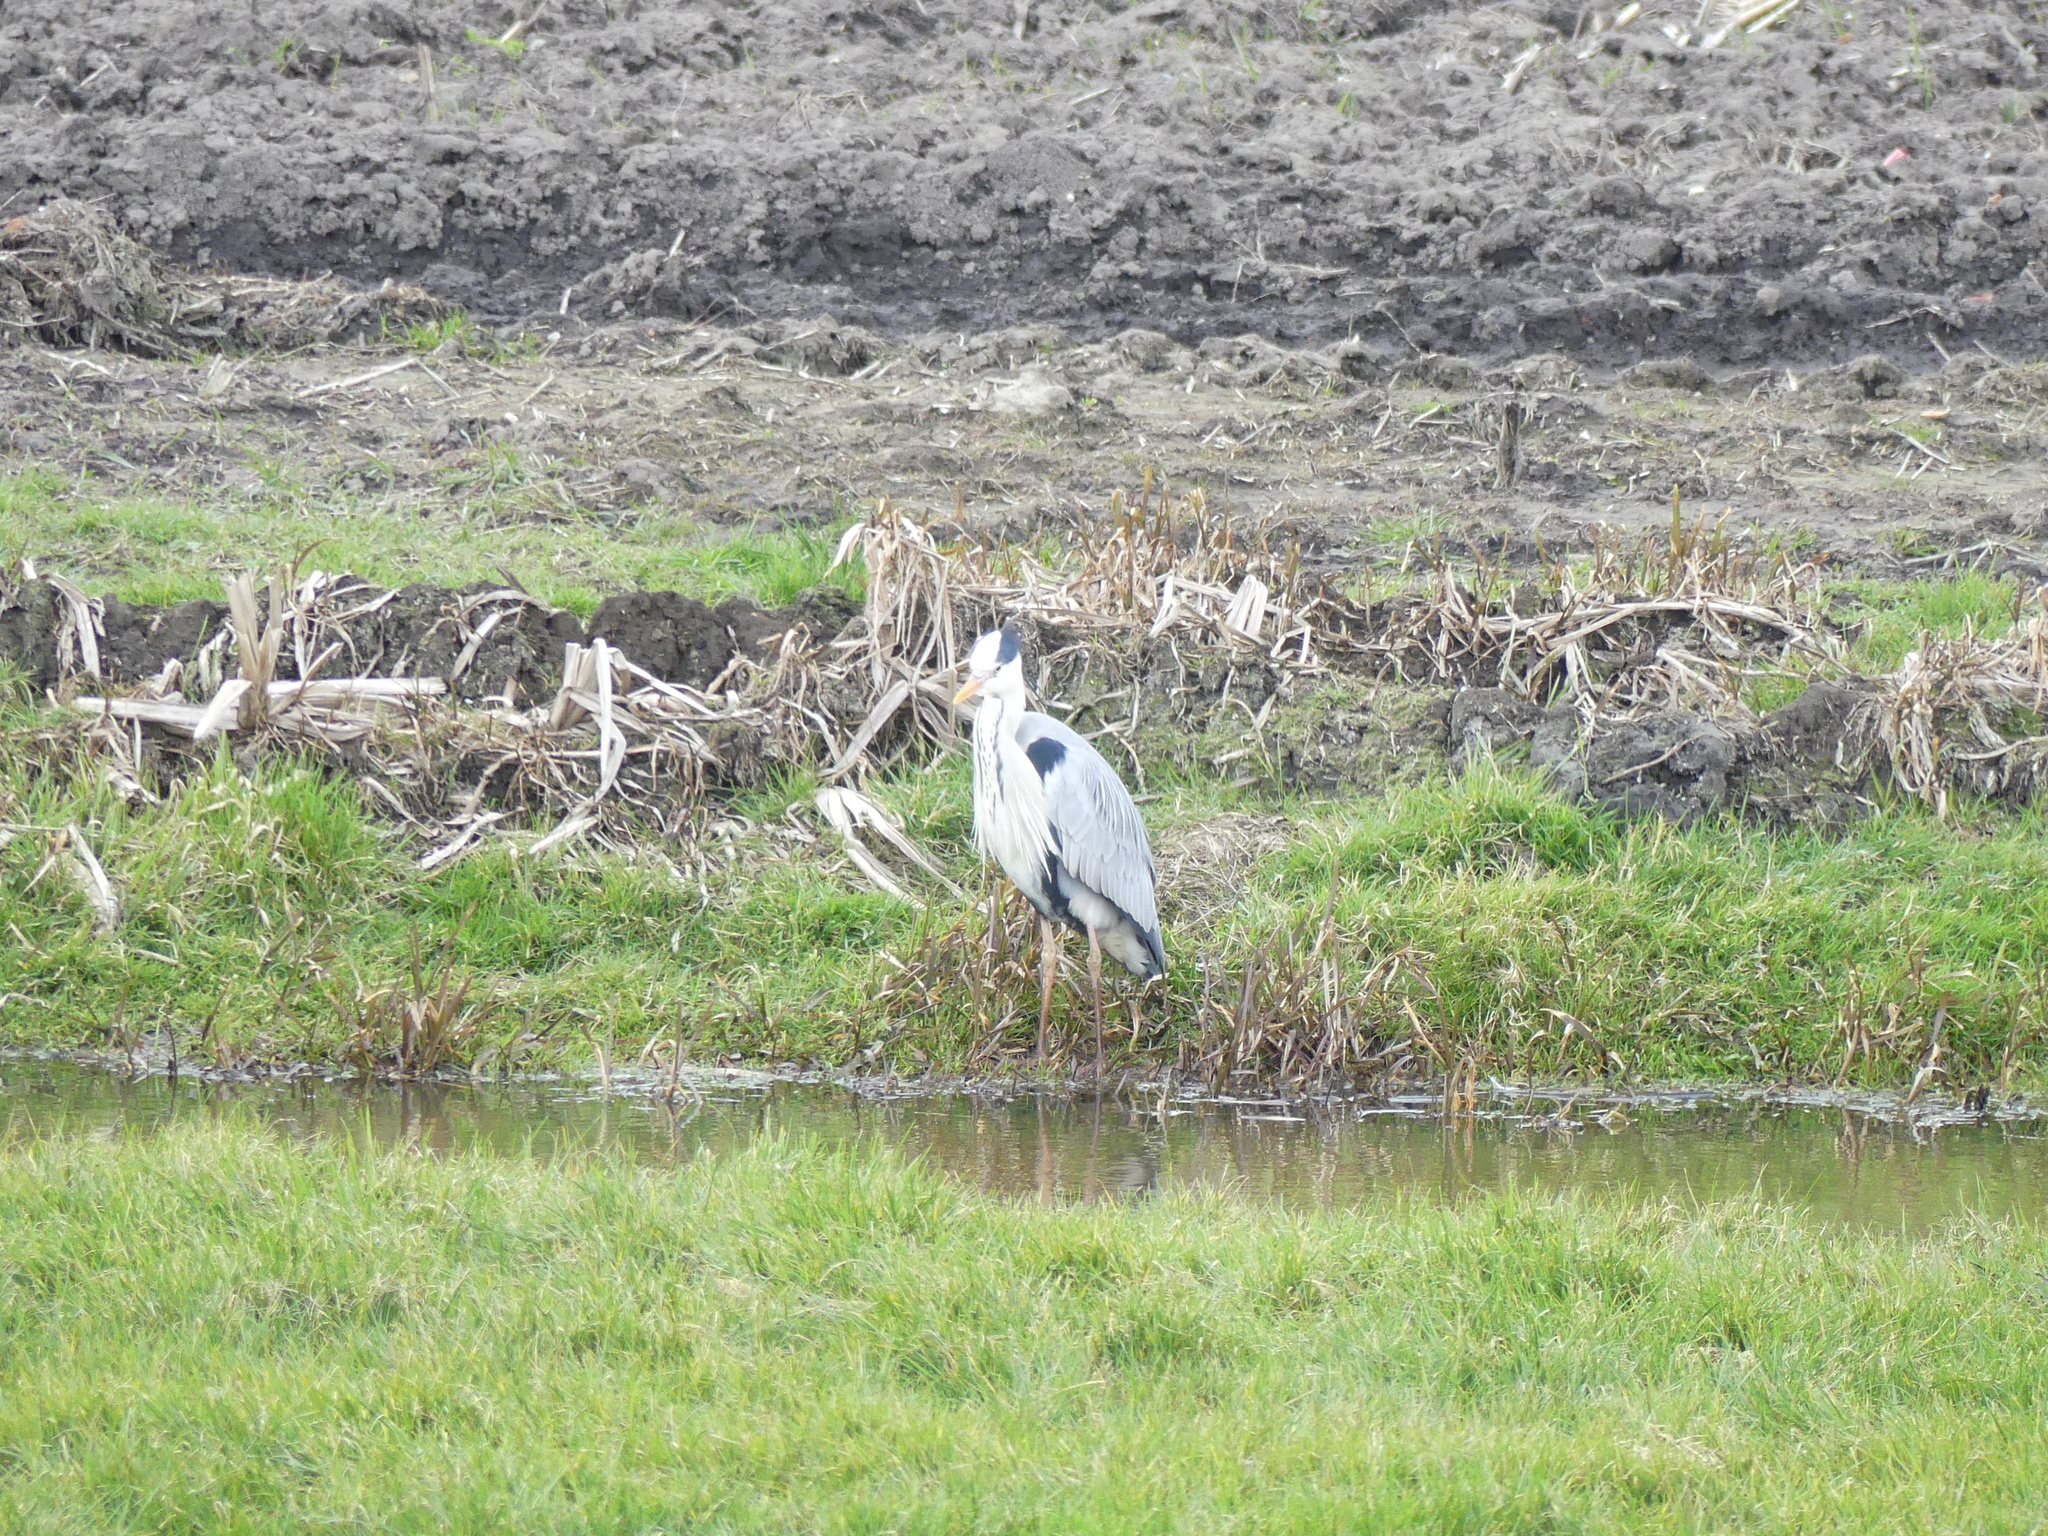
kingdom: Animalia
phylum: Chordata
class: Aves
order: Pelecaniformes
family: Ardeidae
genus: Ardea
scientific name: Ardea cinerea
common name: Grey heron
